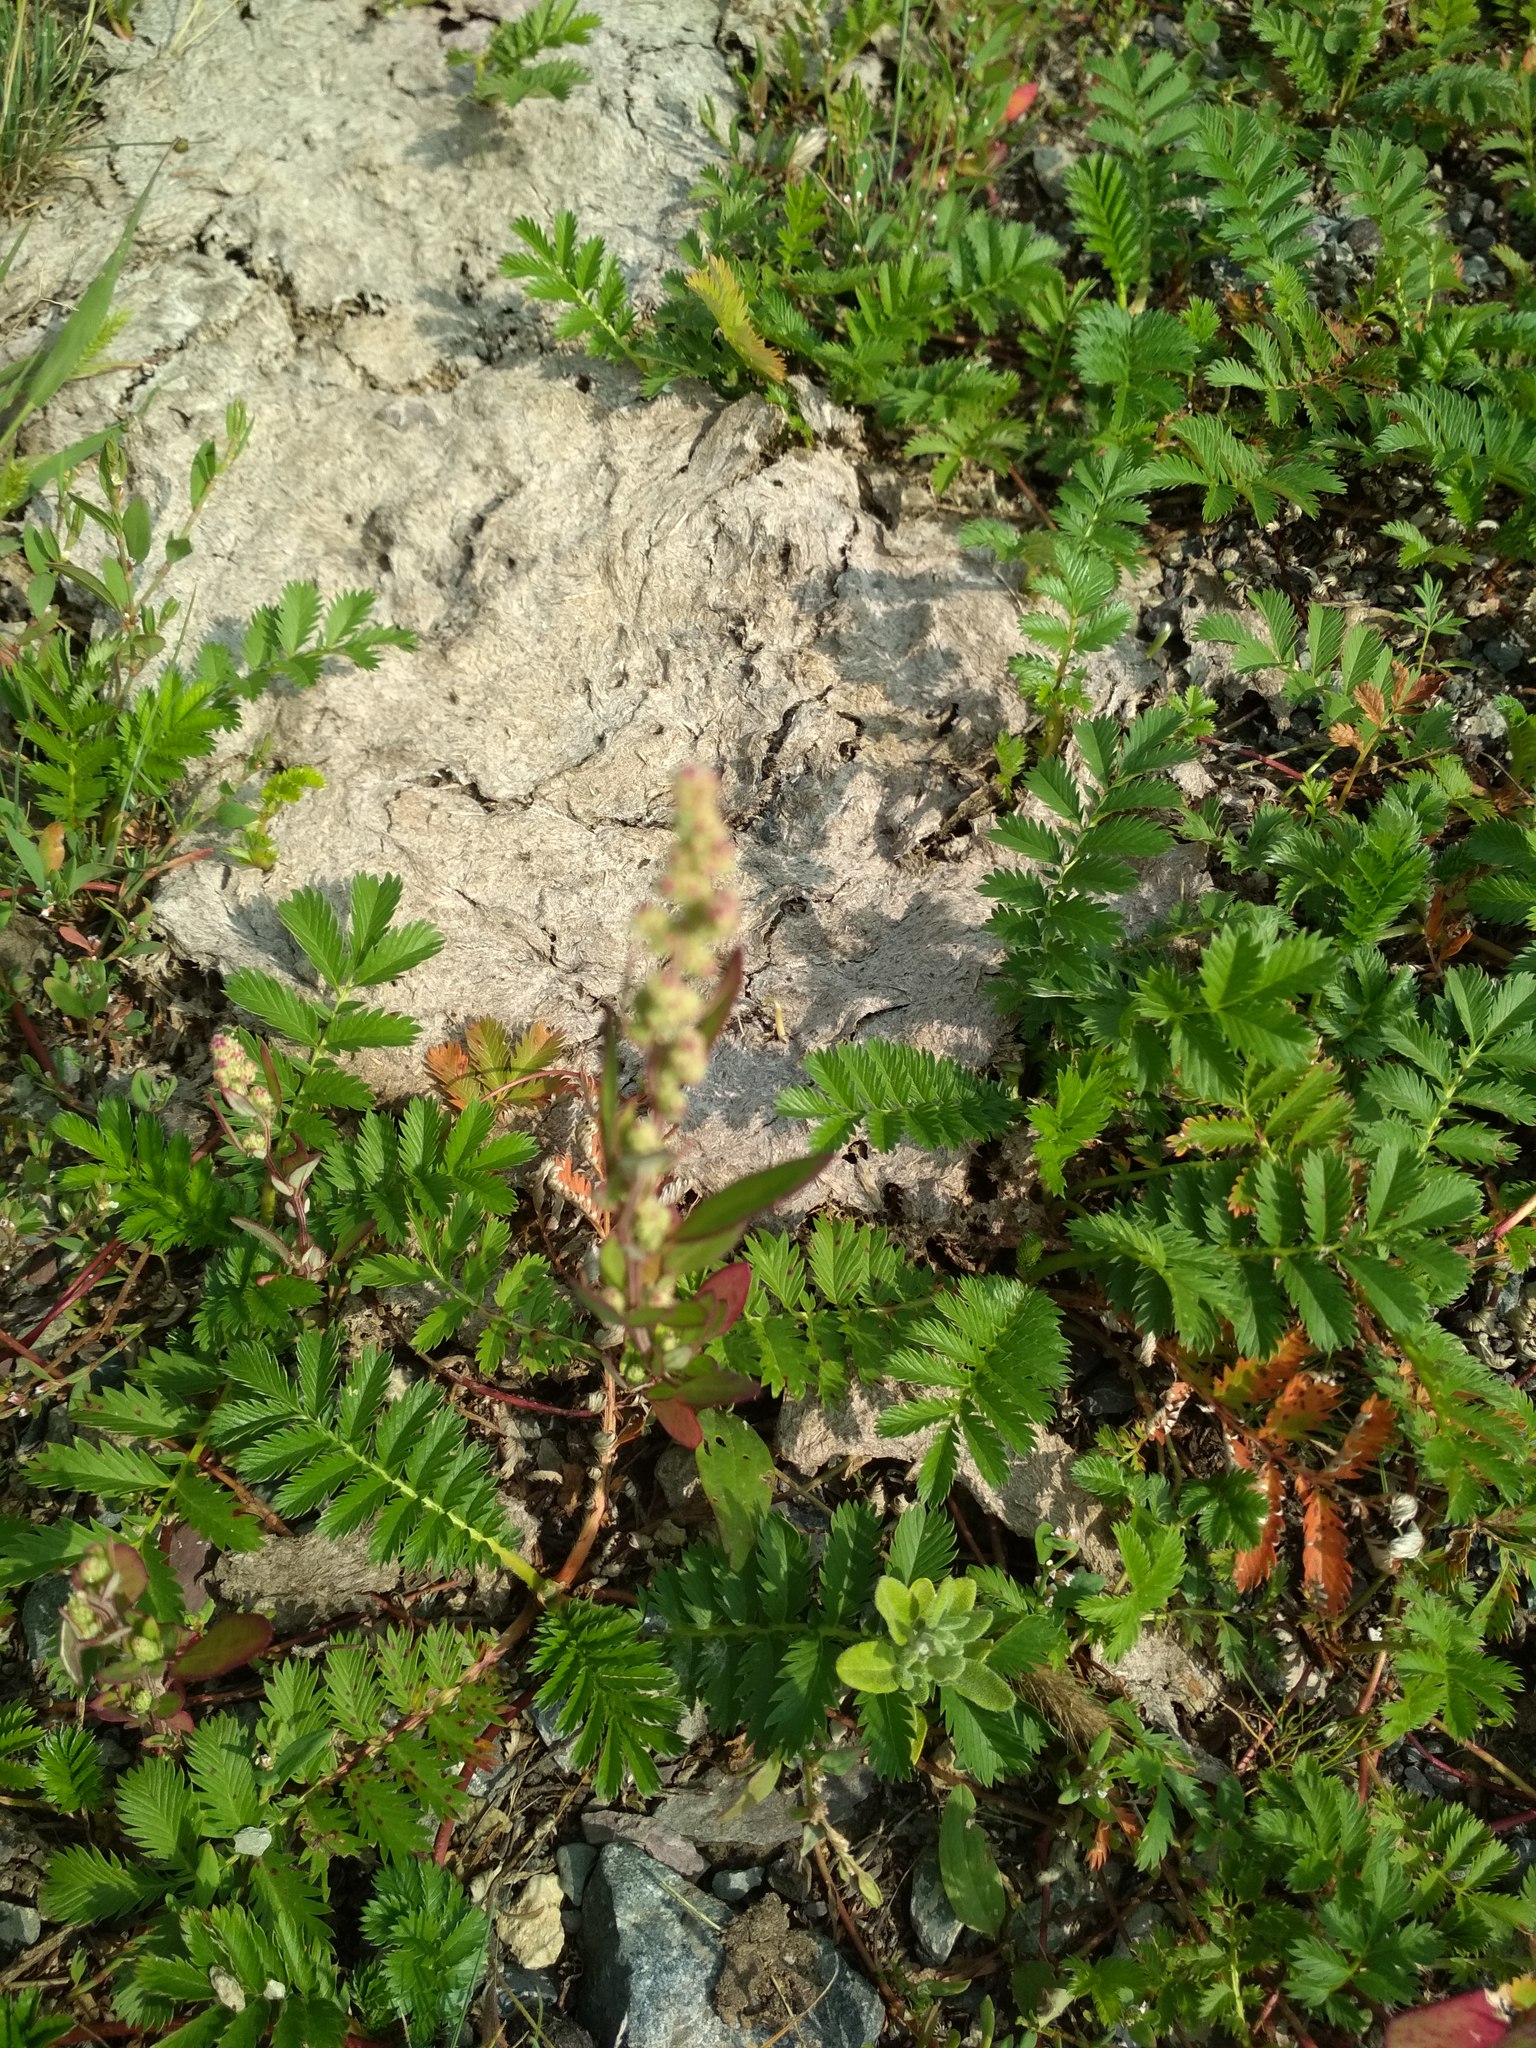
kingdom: Plantae
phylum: Tracheophyta
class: Magnoliopsida
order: Rosales
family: Rosaceae
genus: Argentina
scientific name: Argentina anserina
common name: Common silverweed
